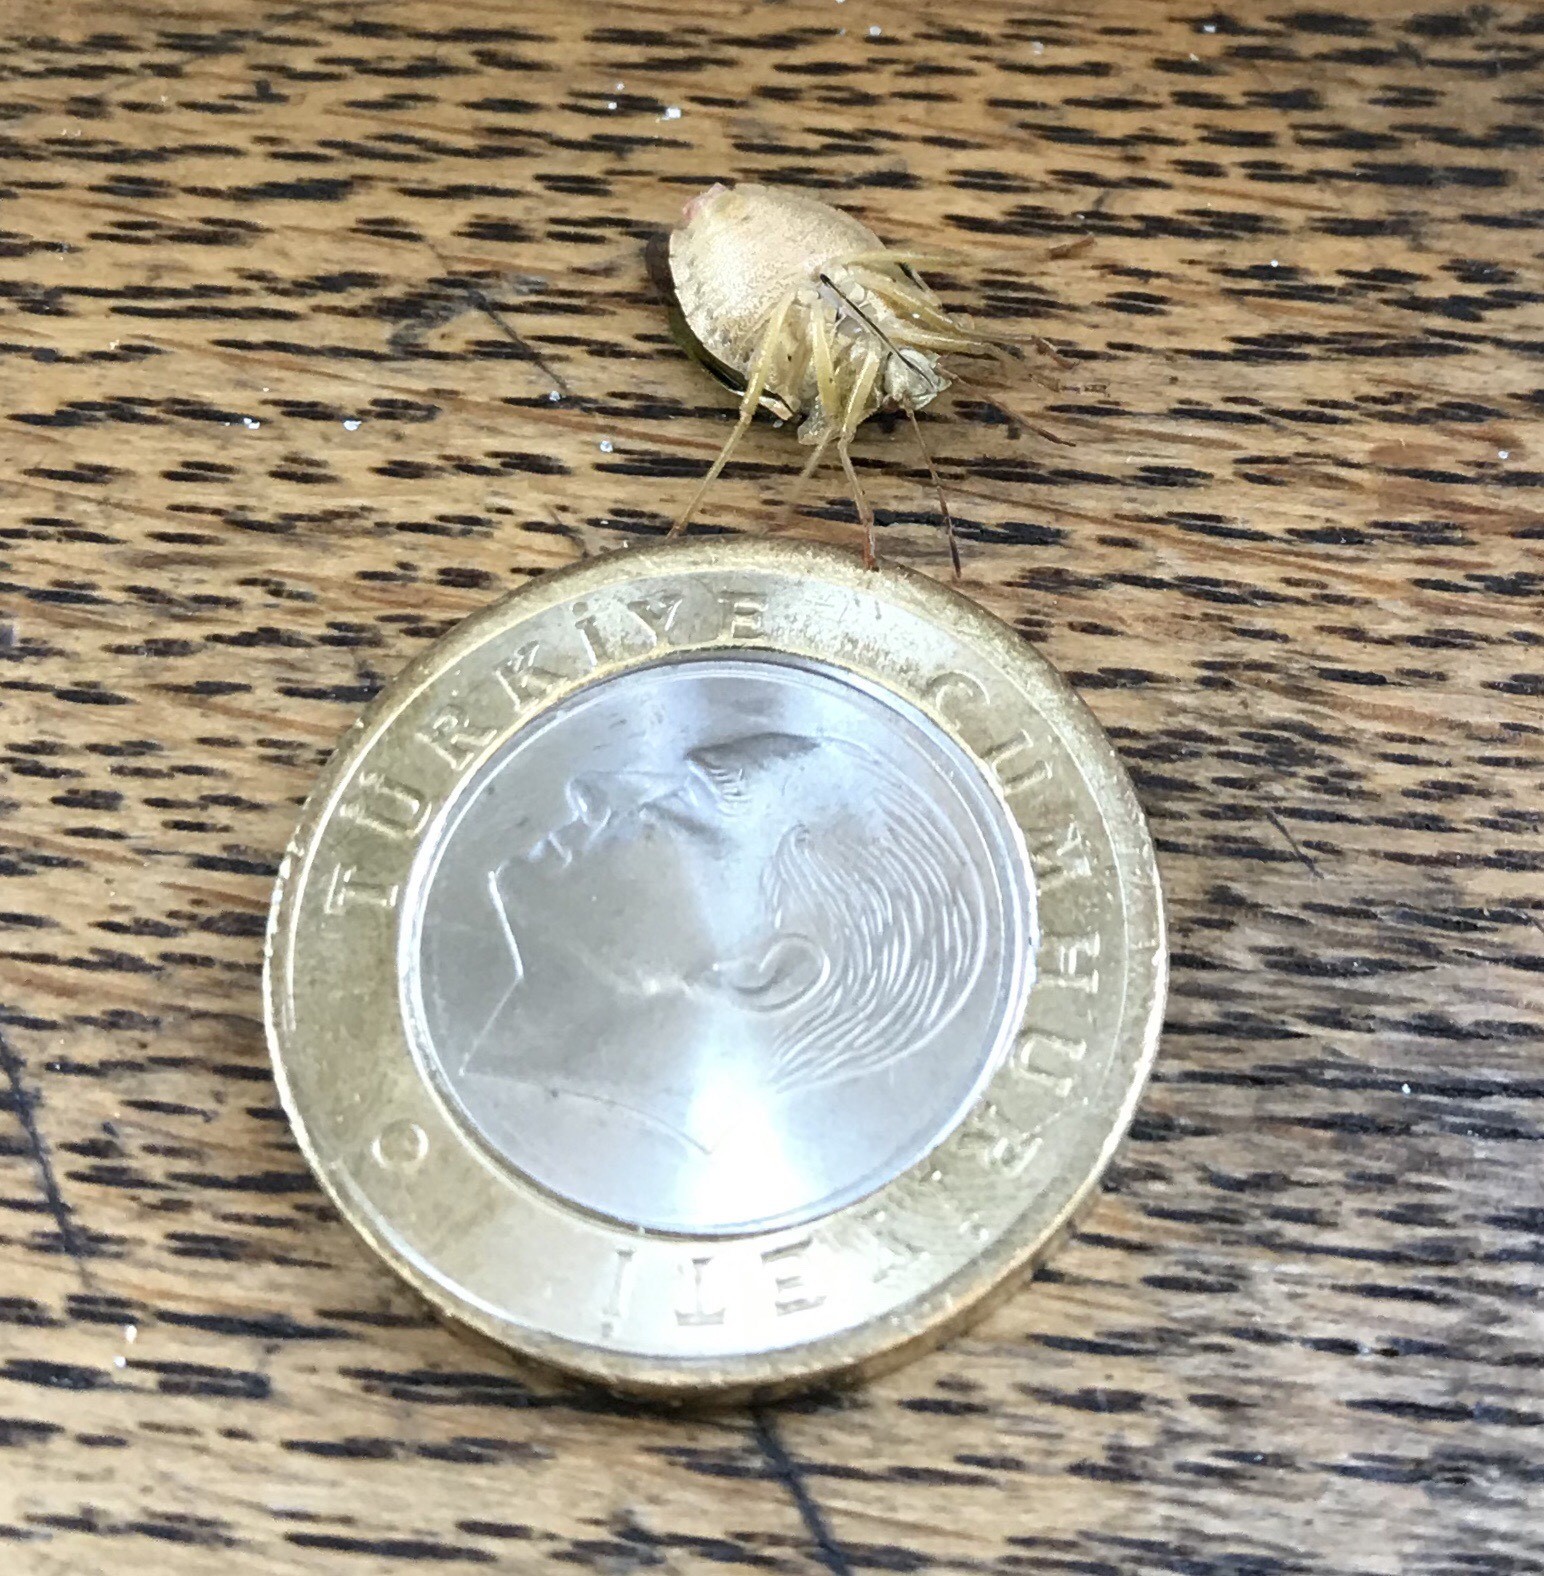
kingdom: Animalia
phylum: Arthropoda
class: Insecta
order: Hemiptera
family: Pentatomidae
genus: Palomena
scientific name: Palomena prasina
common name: Green shieldbug
